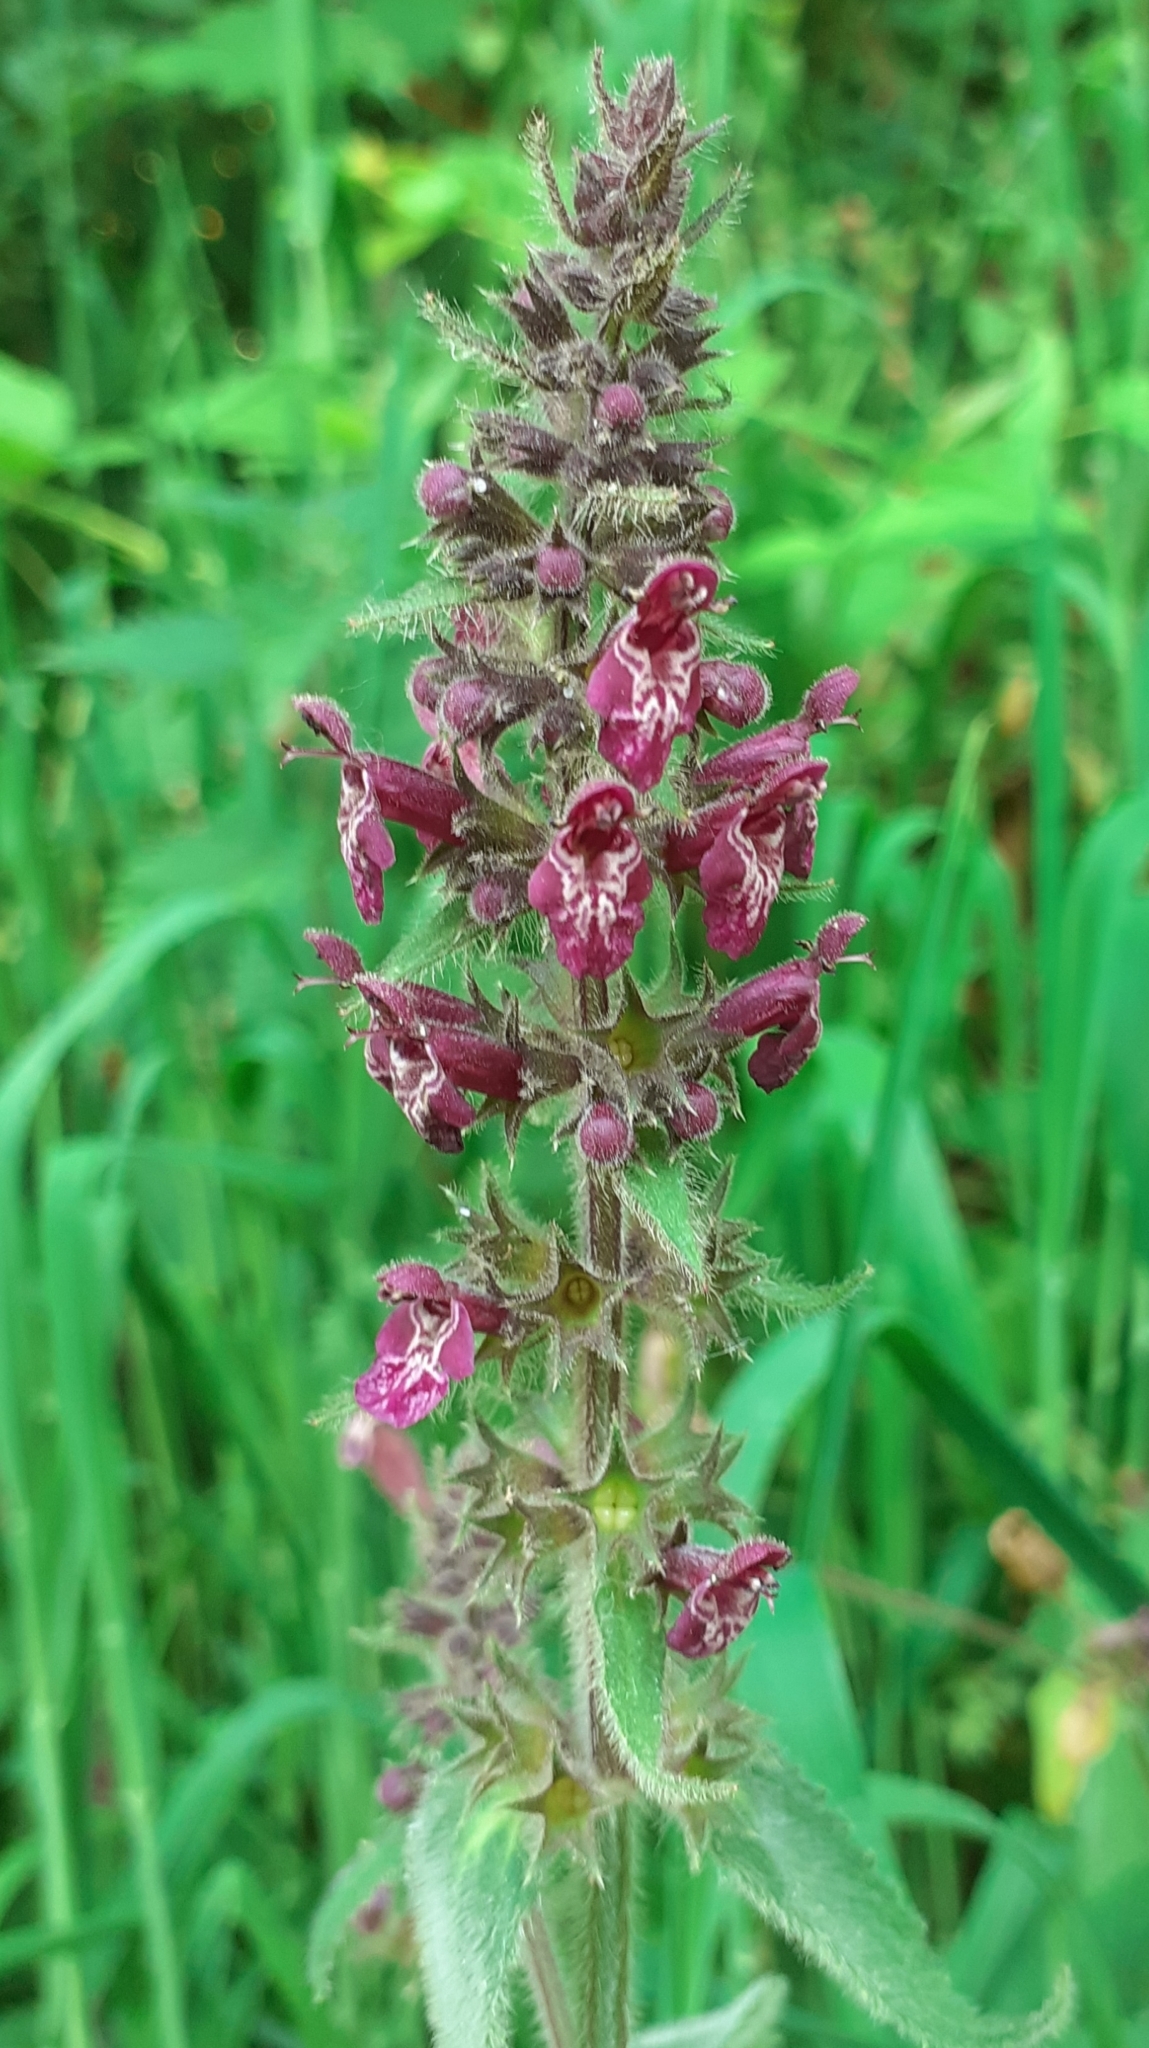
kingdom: Plantae
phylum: Tracheophyta
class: Magnoliopsida
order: Lamiales
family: Lamiaceae
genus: Stachys
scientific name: Stachys sylvatica
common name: Hedge woundwort
